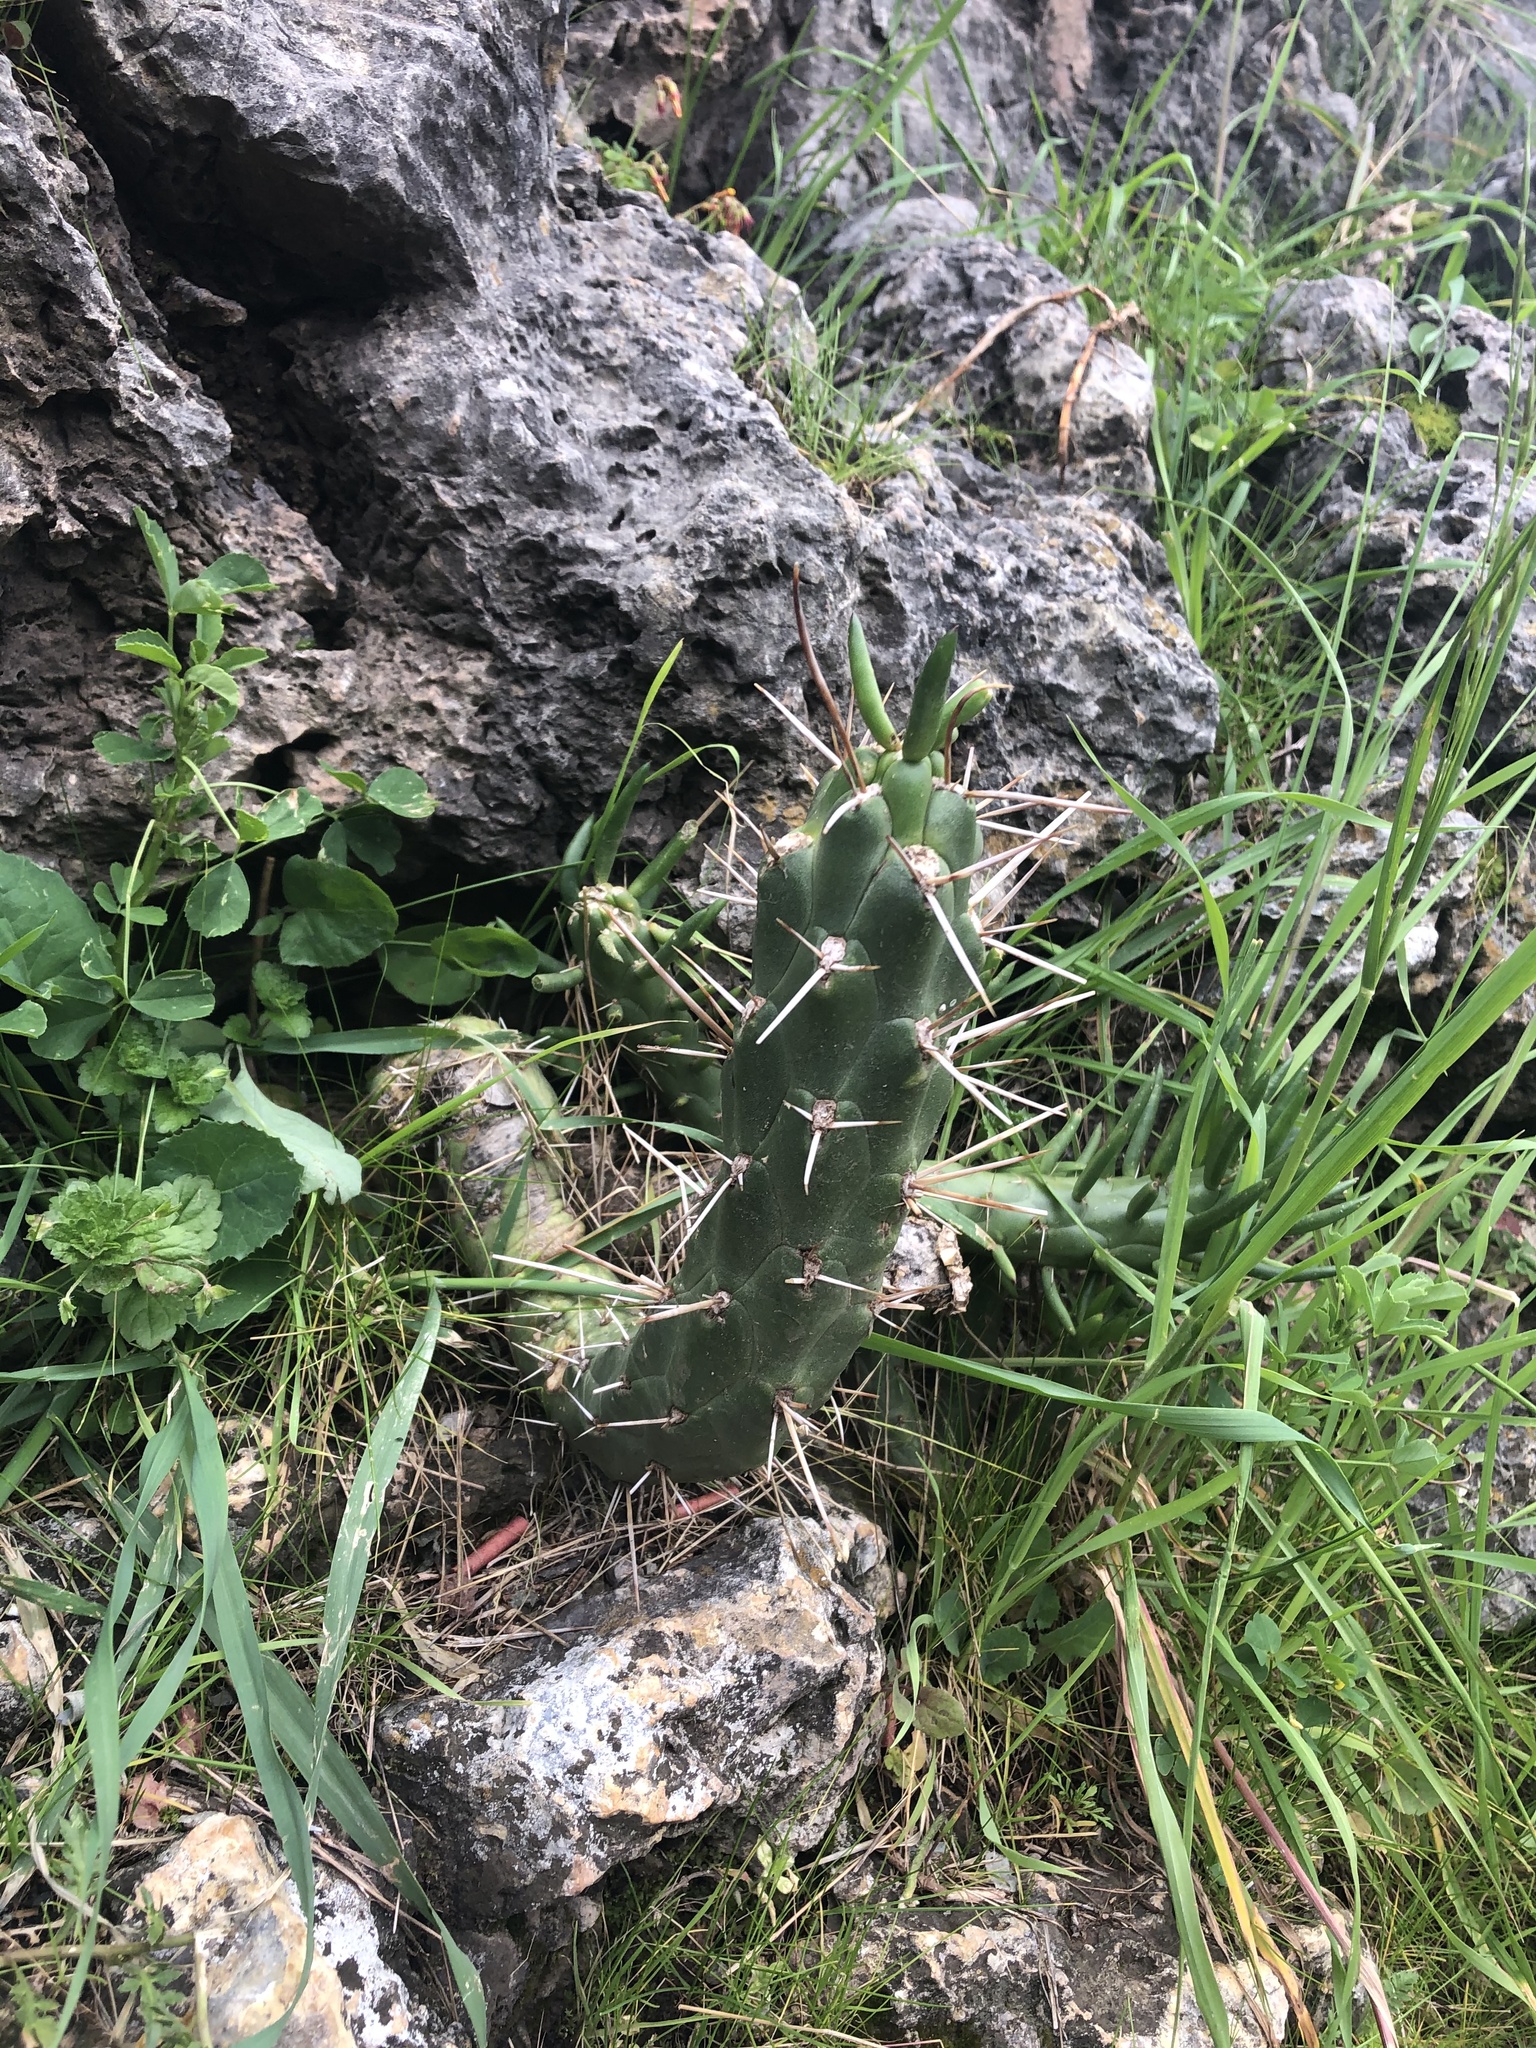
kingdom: Plantae
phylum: Tracheophyta
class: Magnoliopsida
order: Caryophyllales
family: Cactaceae
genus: Austrocylindropuntia
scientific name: Austrocylindropuntia subulata
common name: Eve's needle cactus
